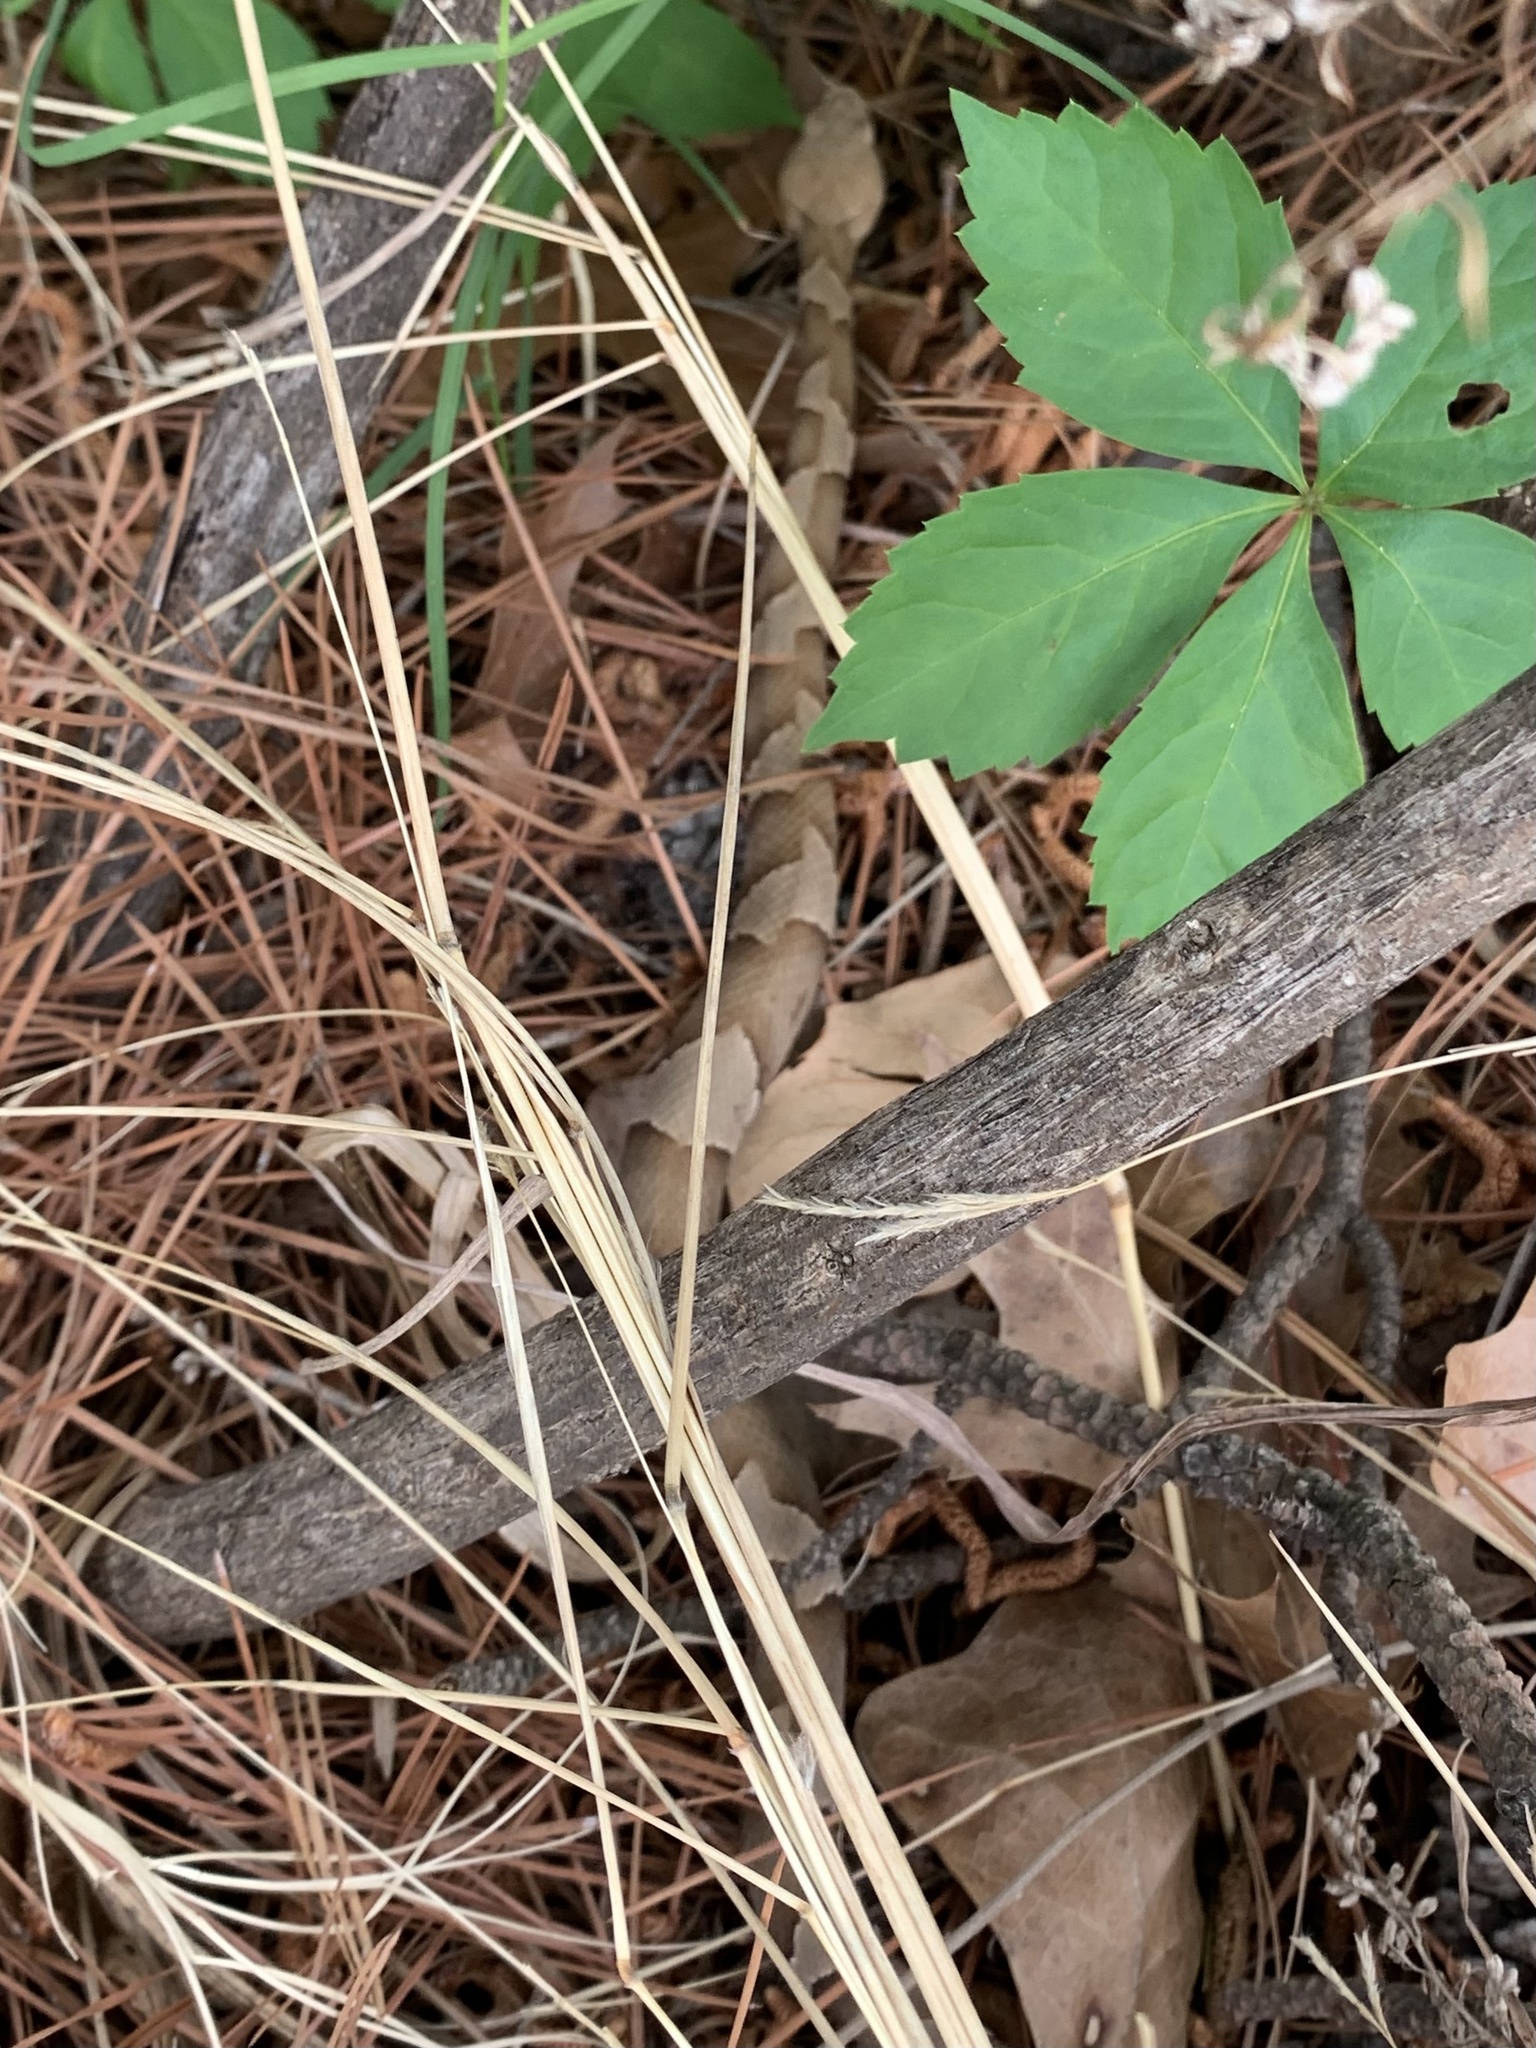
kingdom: Animalia
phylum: Chordata
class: Squamata
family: Viperidae
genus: Agkistrodon
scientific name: Agkistrodon laticinctus
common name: Broad-banded copperhead
